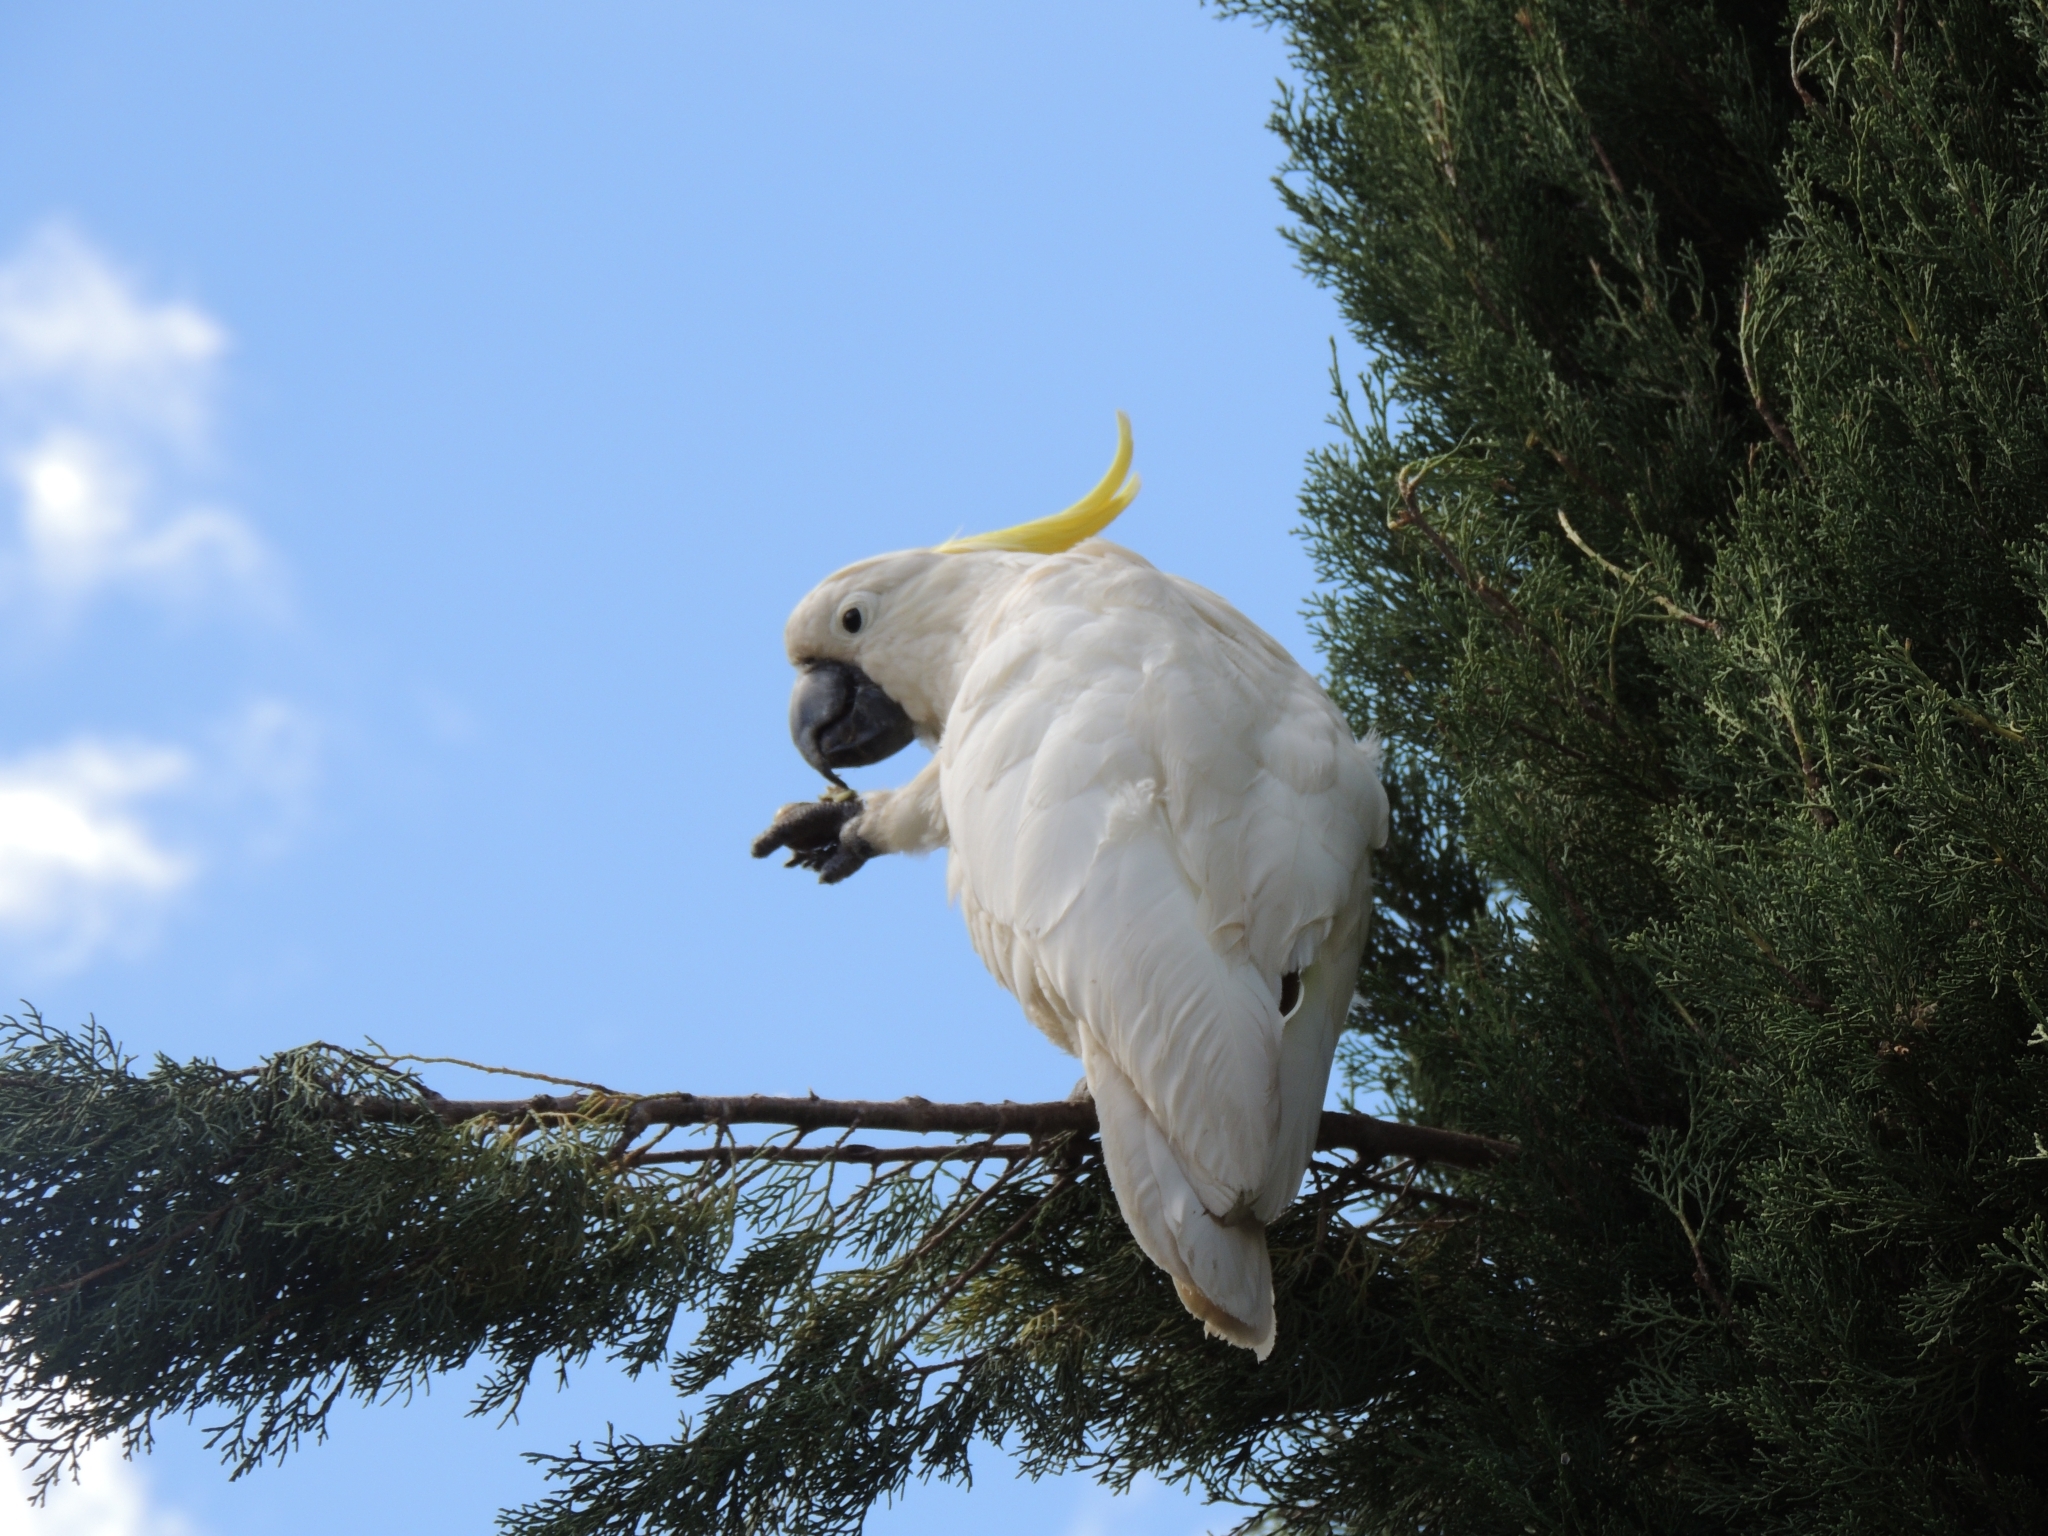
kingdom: Animalia
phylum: Chordata
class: Aves
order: Psittaciformes
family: Psittacidae
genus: Cacatua
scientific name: Cacatua galerita
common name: Sulphur-crested cockatoo
